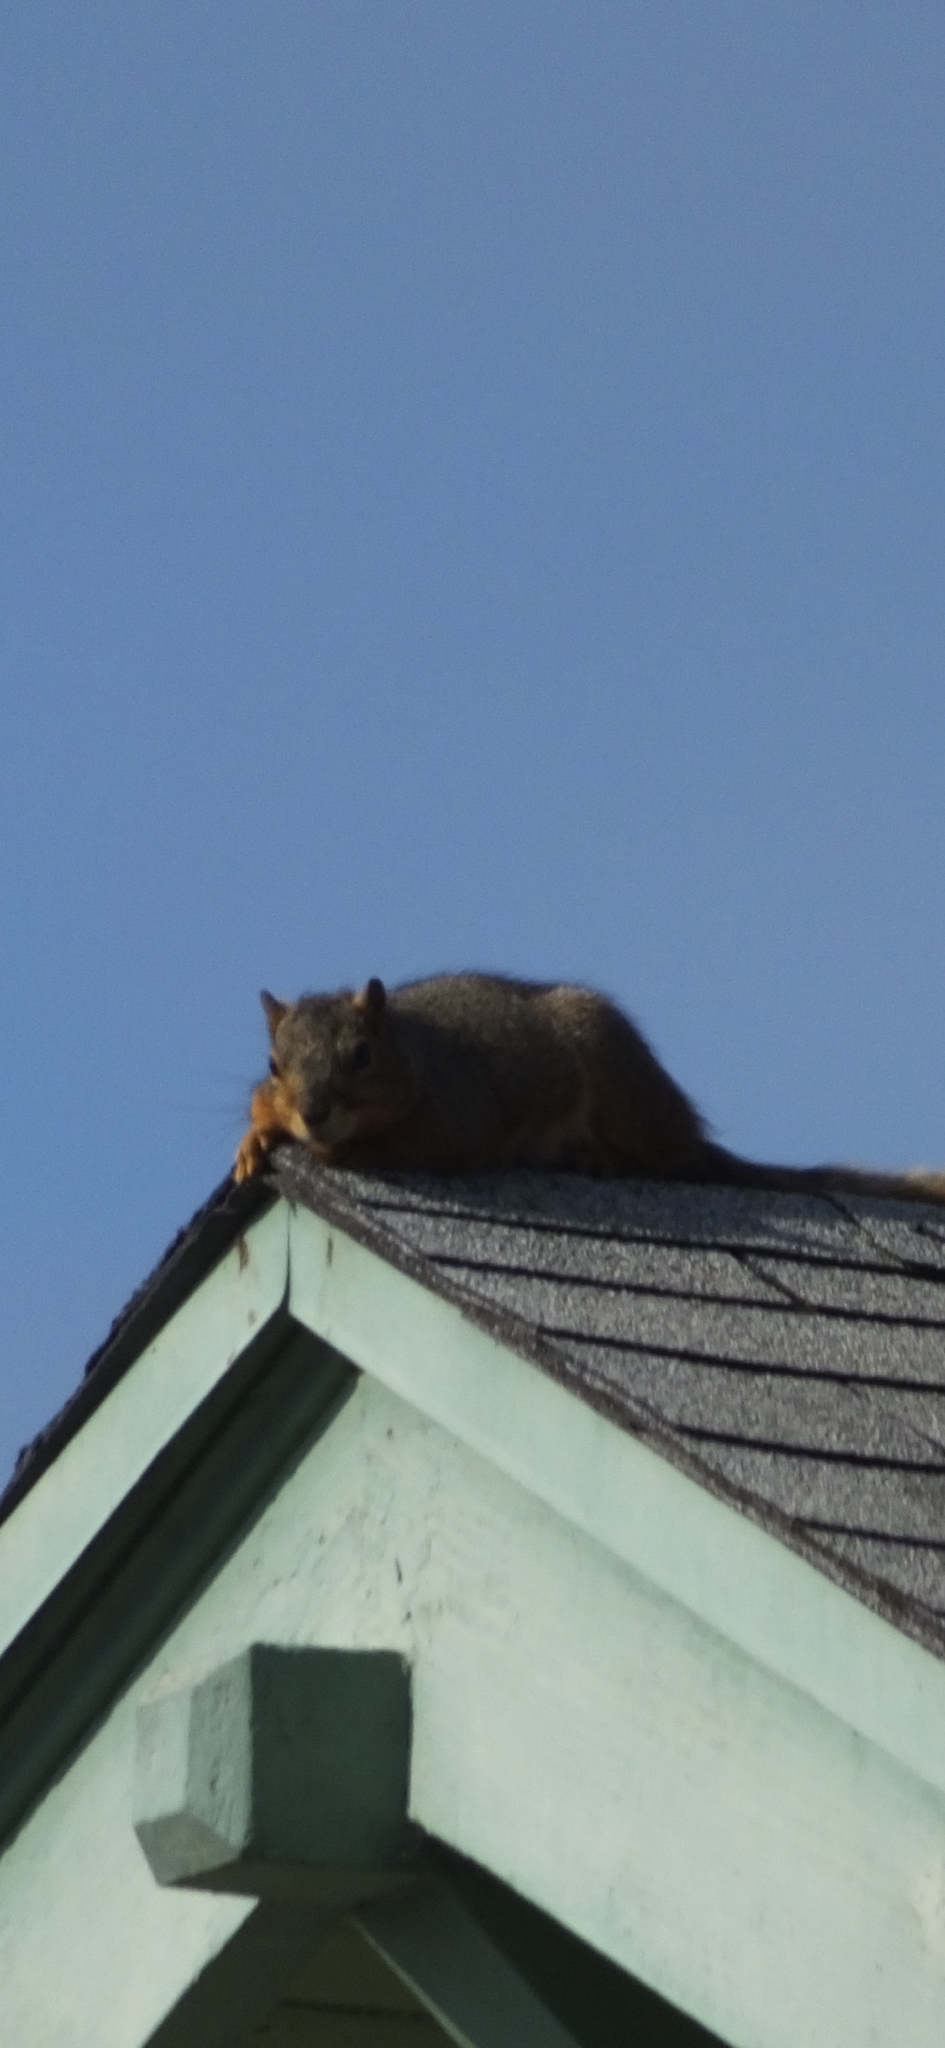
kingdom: Animalia
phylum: Chordata
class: Mammalia
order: Rodentia
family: Sciuridae
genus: Sciurus
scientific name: Sciurus niger
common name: Fox squirrel
